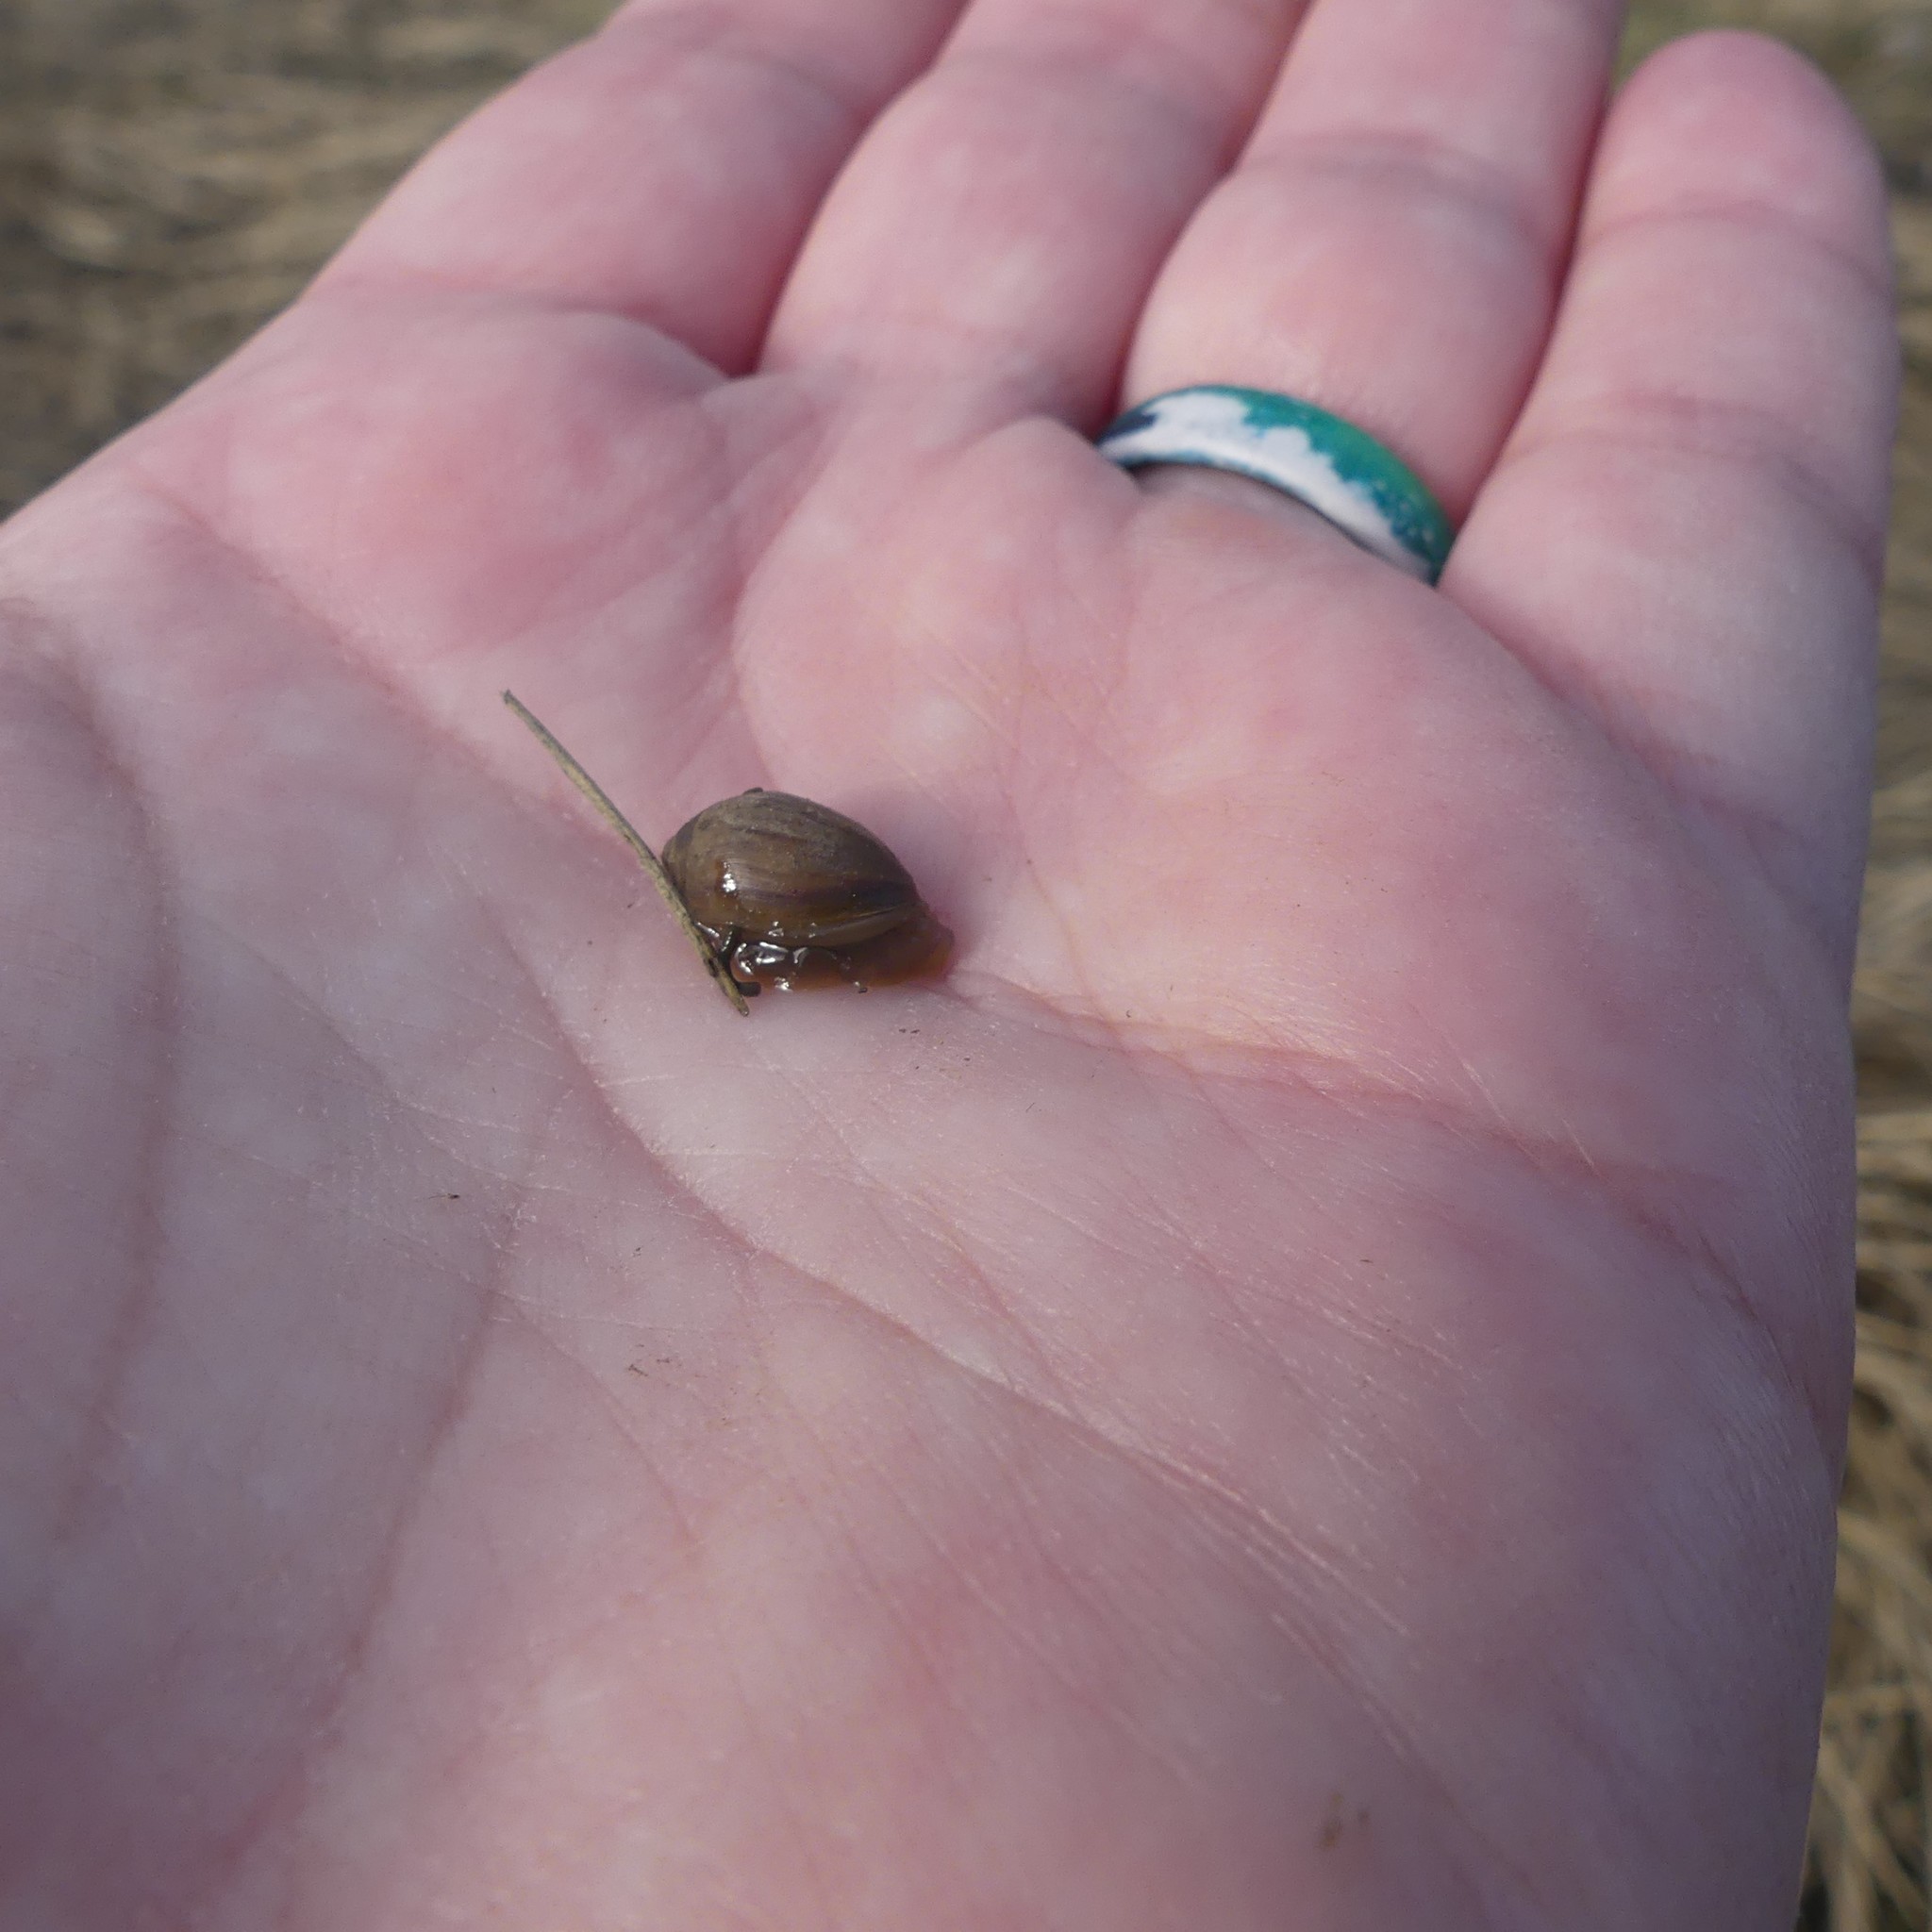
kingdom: Animalia
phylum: Mollusca
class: Gastropoda
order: Ellobiida
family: Ellobiidae
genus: Melampus
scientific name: Melampus bidentatus
